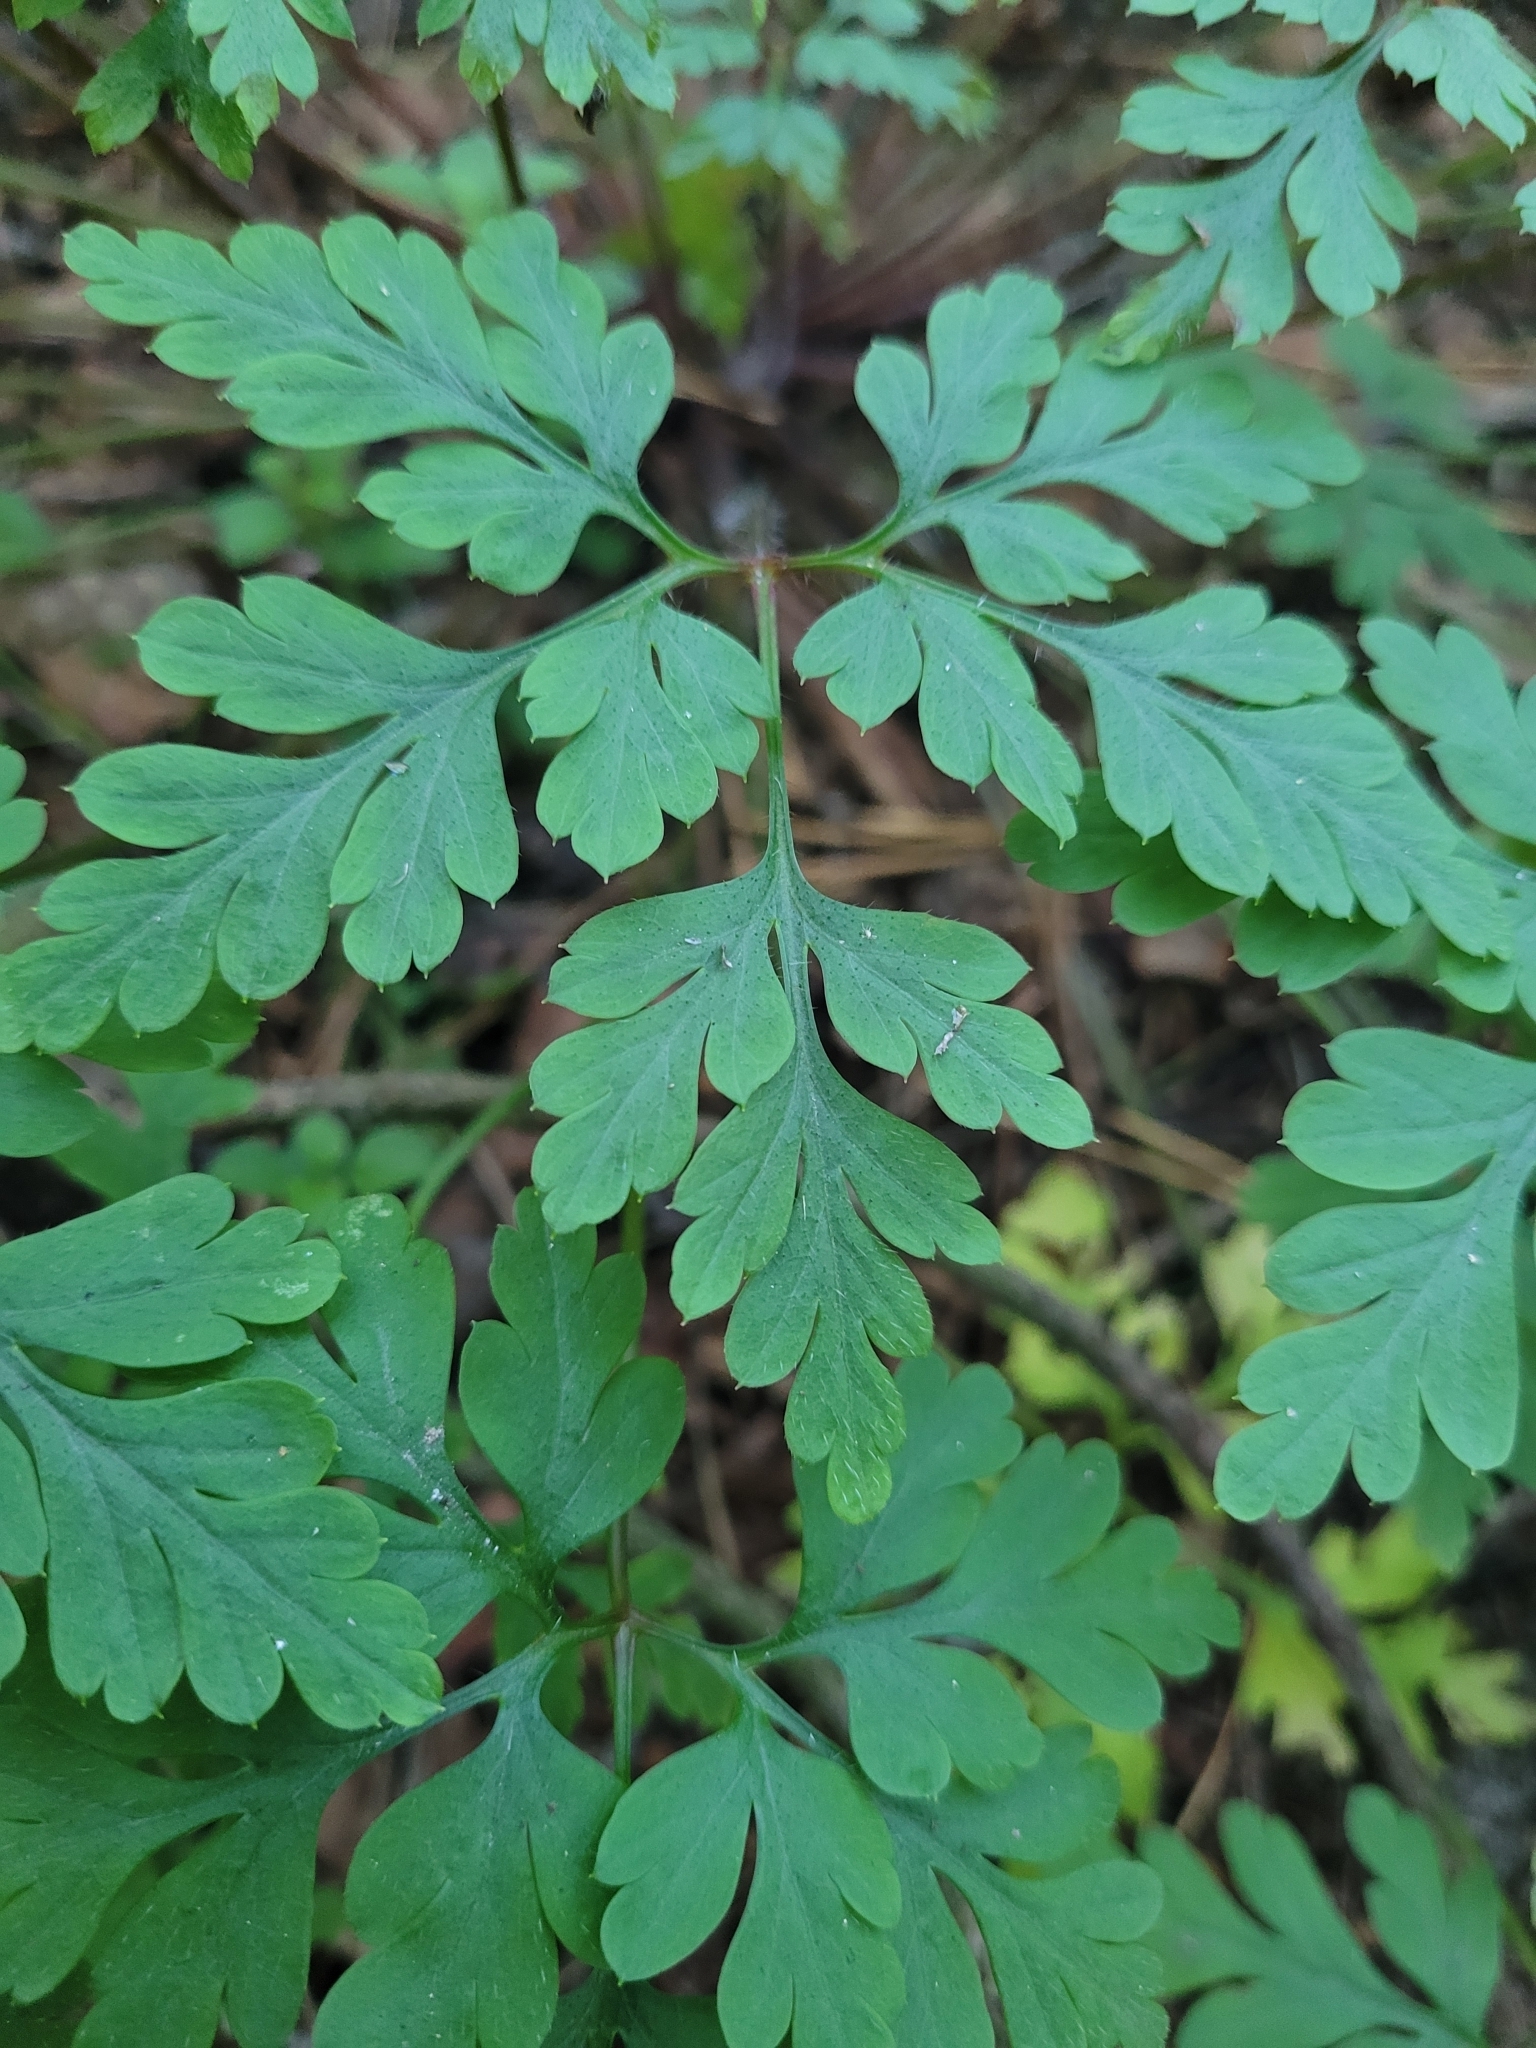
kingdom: Plantae
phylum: Tracheophyta
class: Magnoliopsida
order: Geraniales
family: Geraniaceae
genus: Geranium
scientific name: Geranium robertianum
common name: Herb-robert
